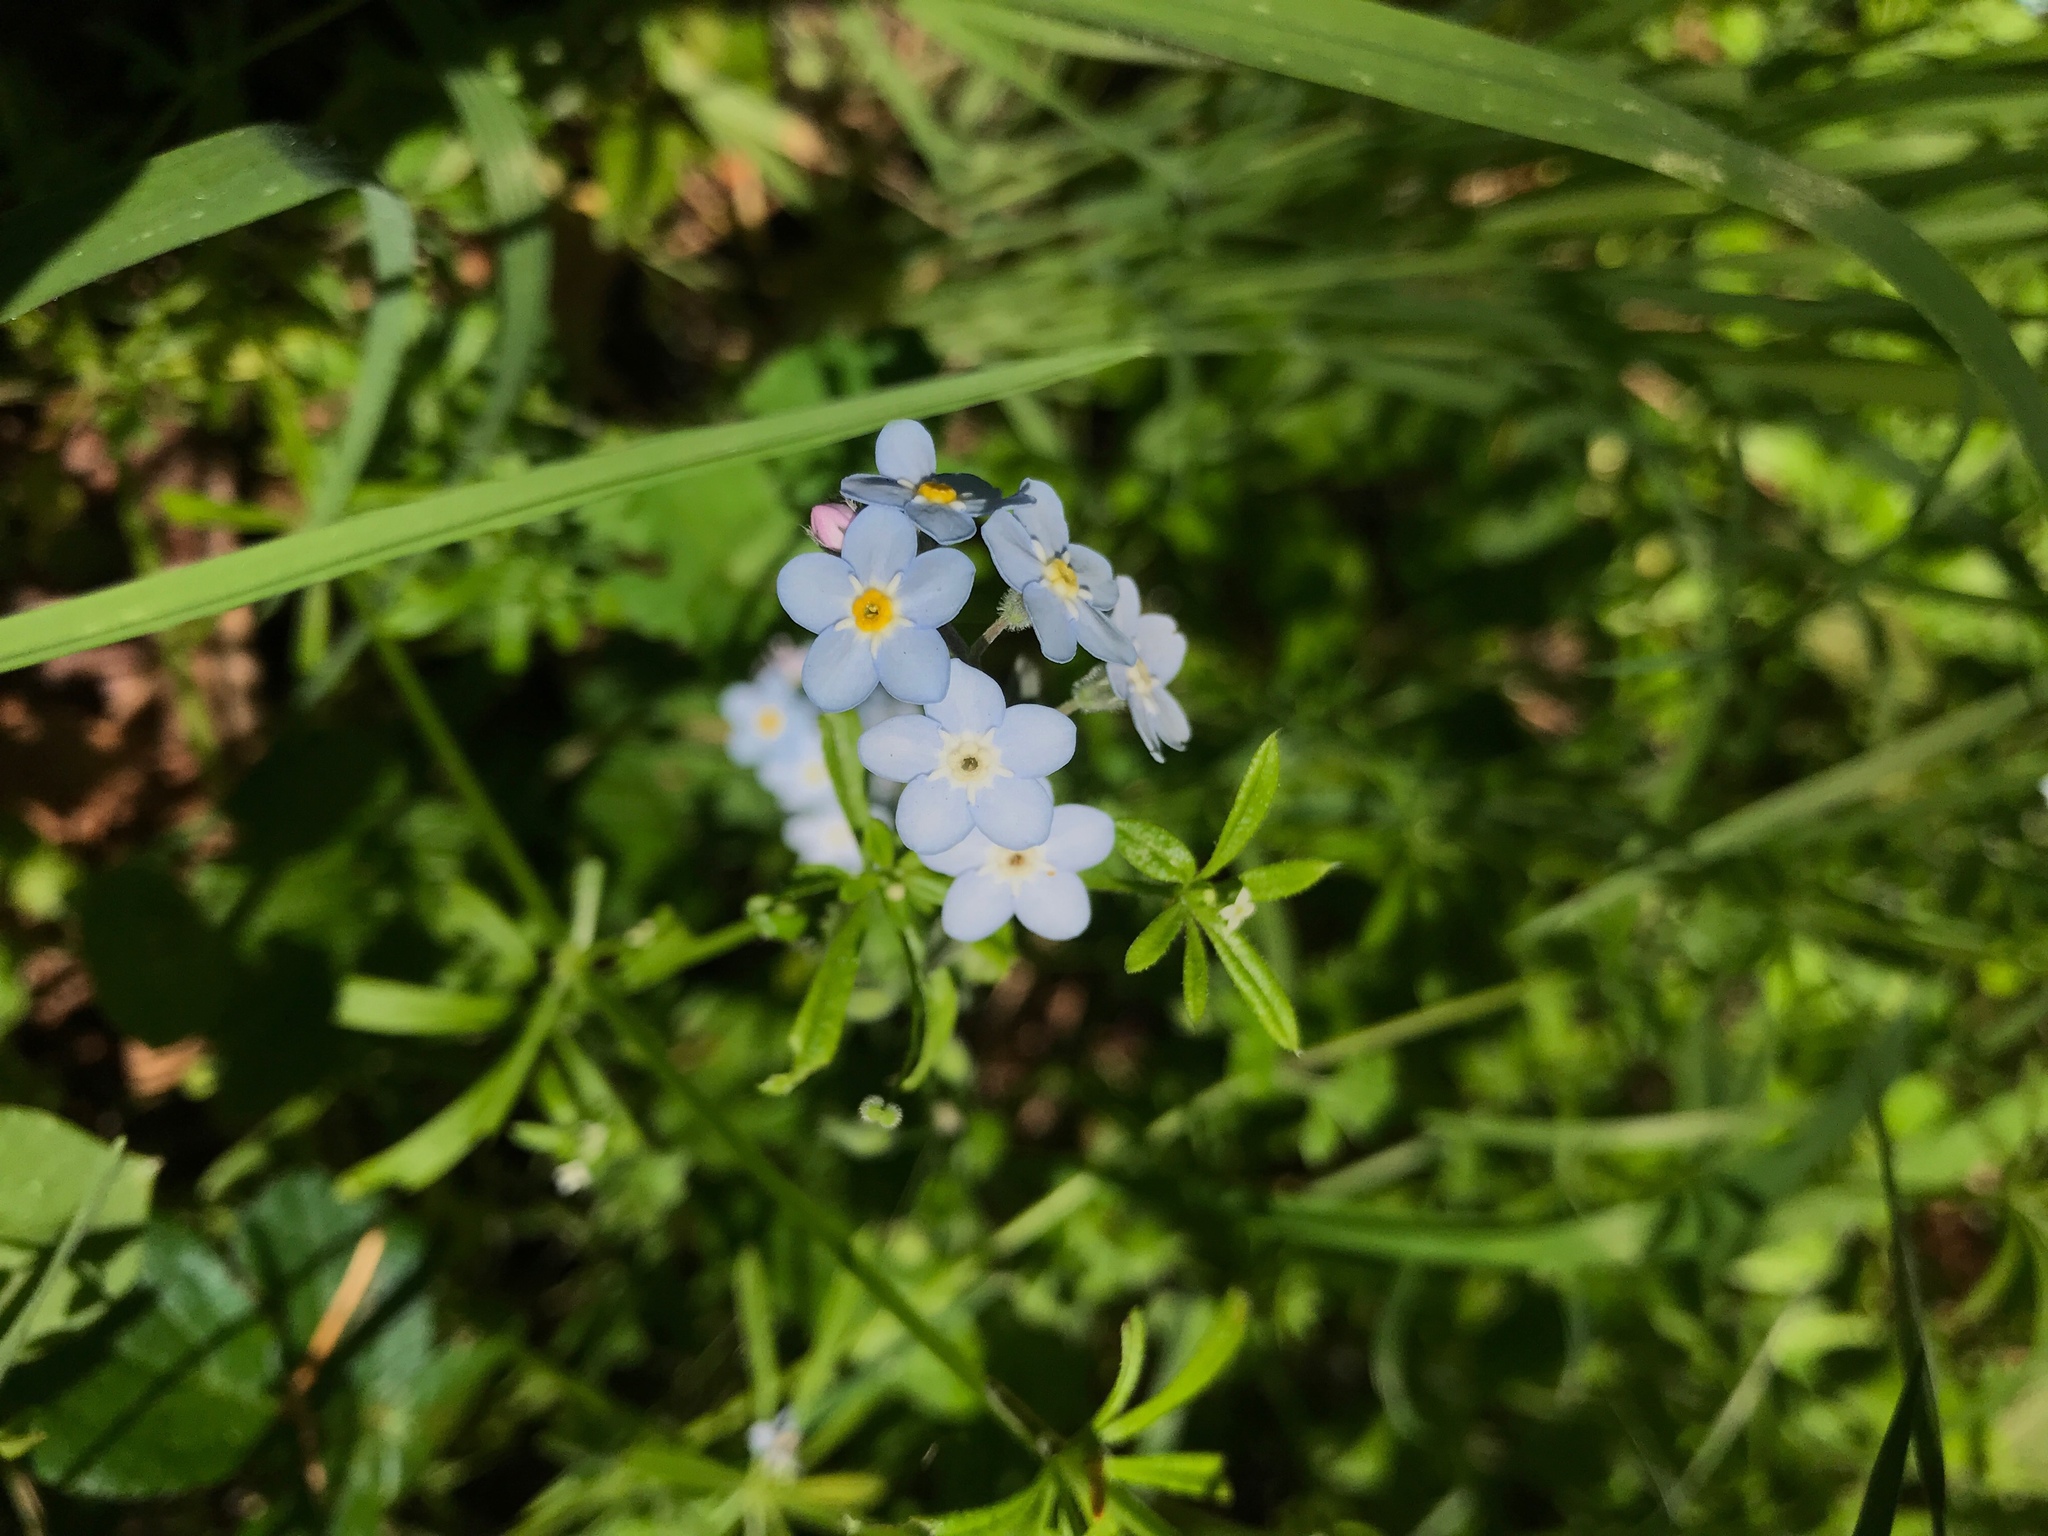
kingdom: Plantae
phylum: Tracheophyta
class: Magnoliopsida
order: Boraginales
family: Boraginaceae
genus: Myosotis
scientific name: Myosotis latifolia
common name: Broadleaf forget-me-not
